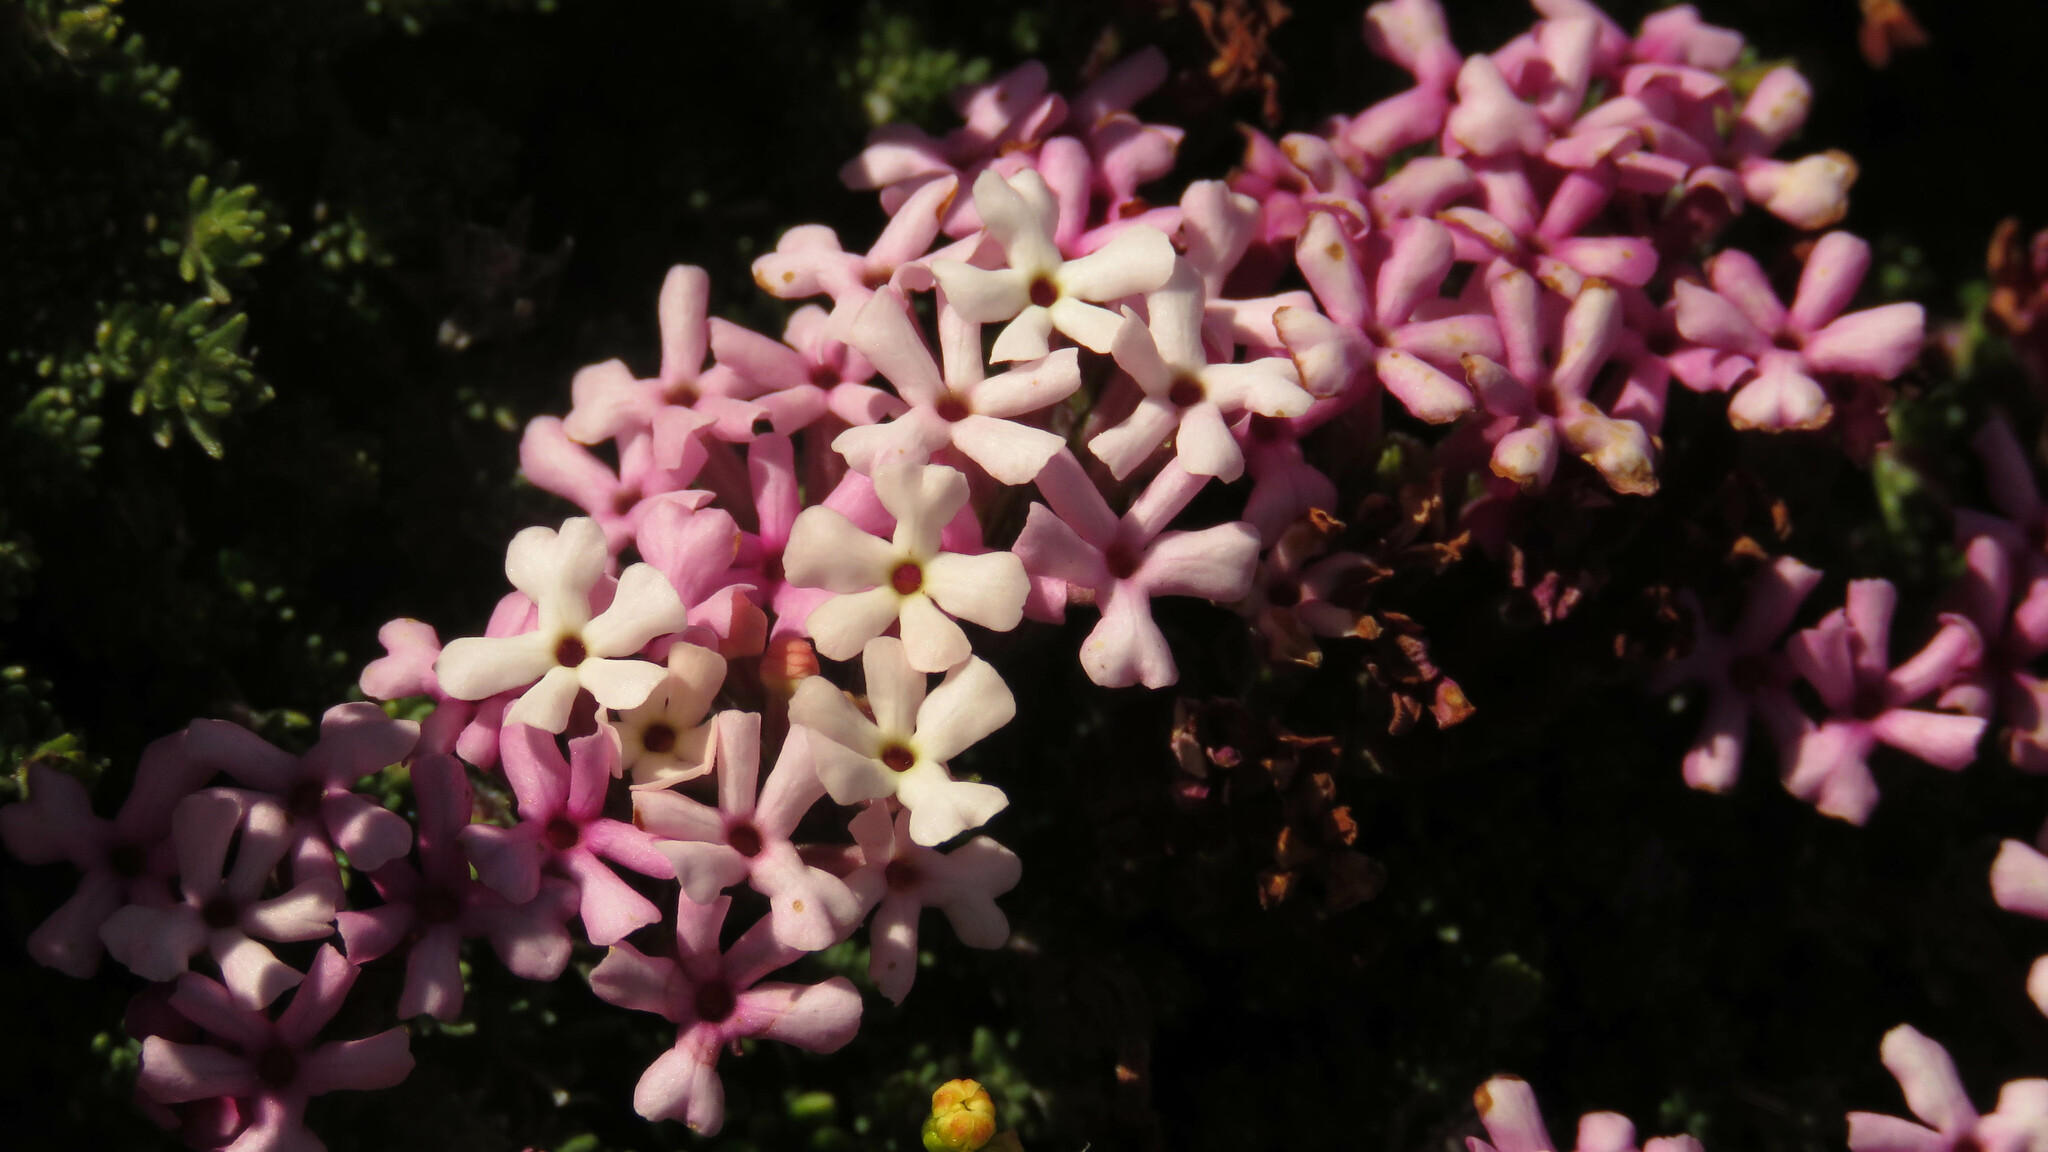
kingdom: Plantae
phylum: Tracheophyta
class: Magnoliopsida
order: Lamiales
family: Verbenaceae
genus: Junellia
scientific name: Junellia tridactylites
